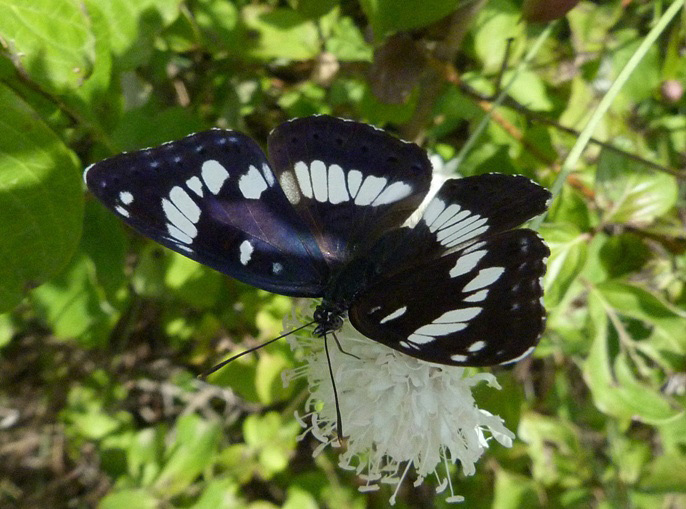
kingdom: Animalia
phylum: Arthropoda
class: Insecta
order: Lepidoptera
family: Nymphalidae
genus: Limenitis
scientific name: Limenitis reducta
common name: Southern white admiral
